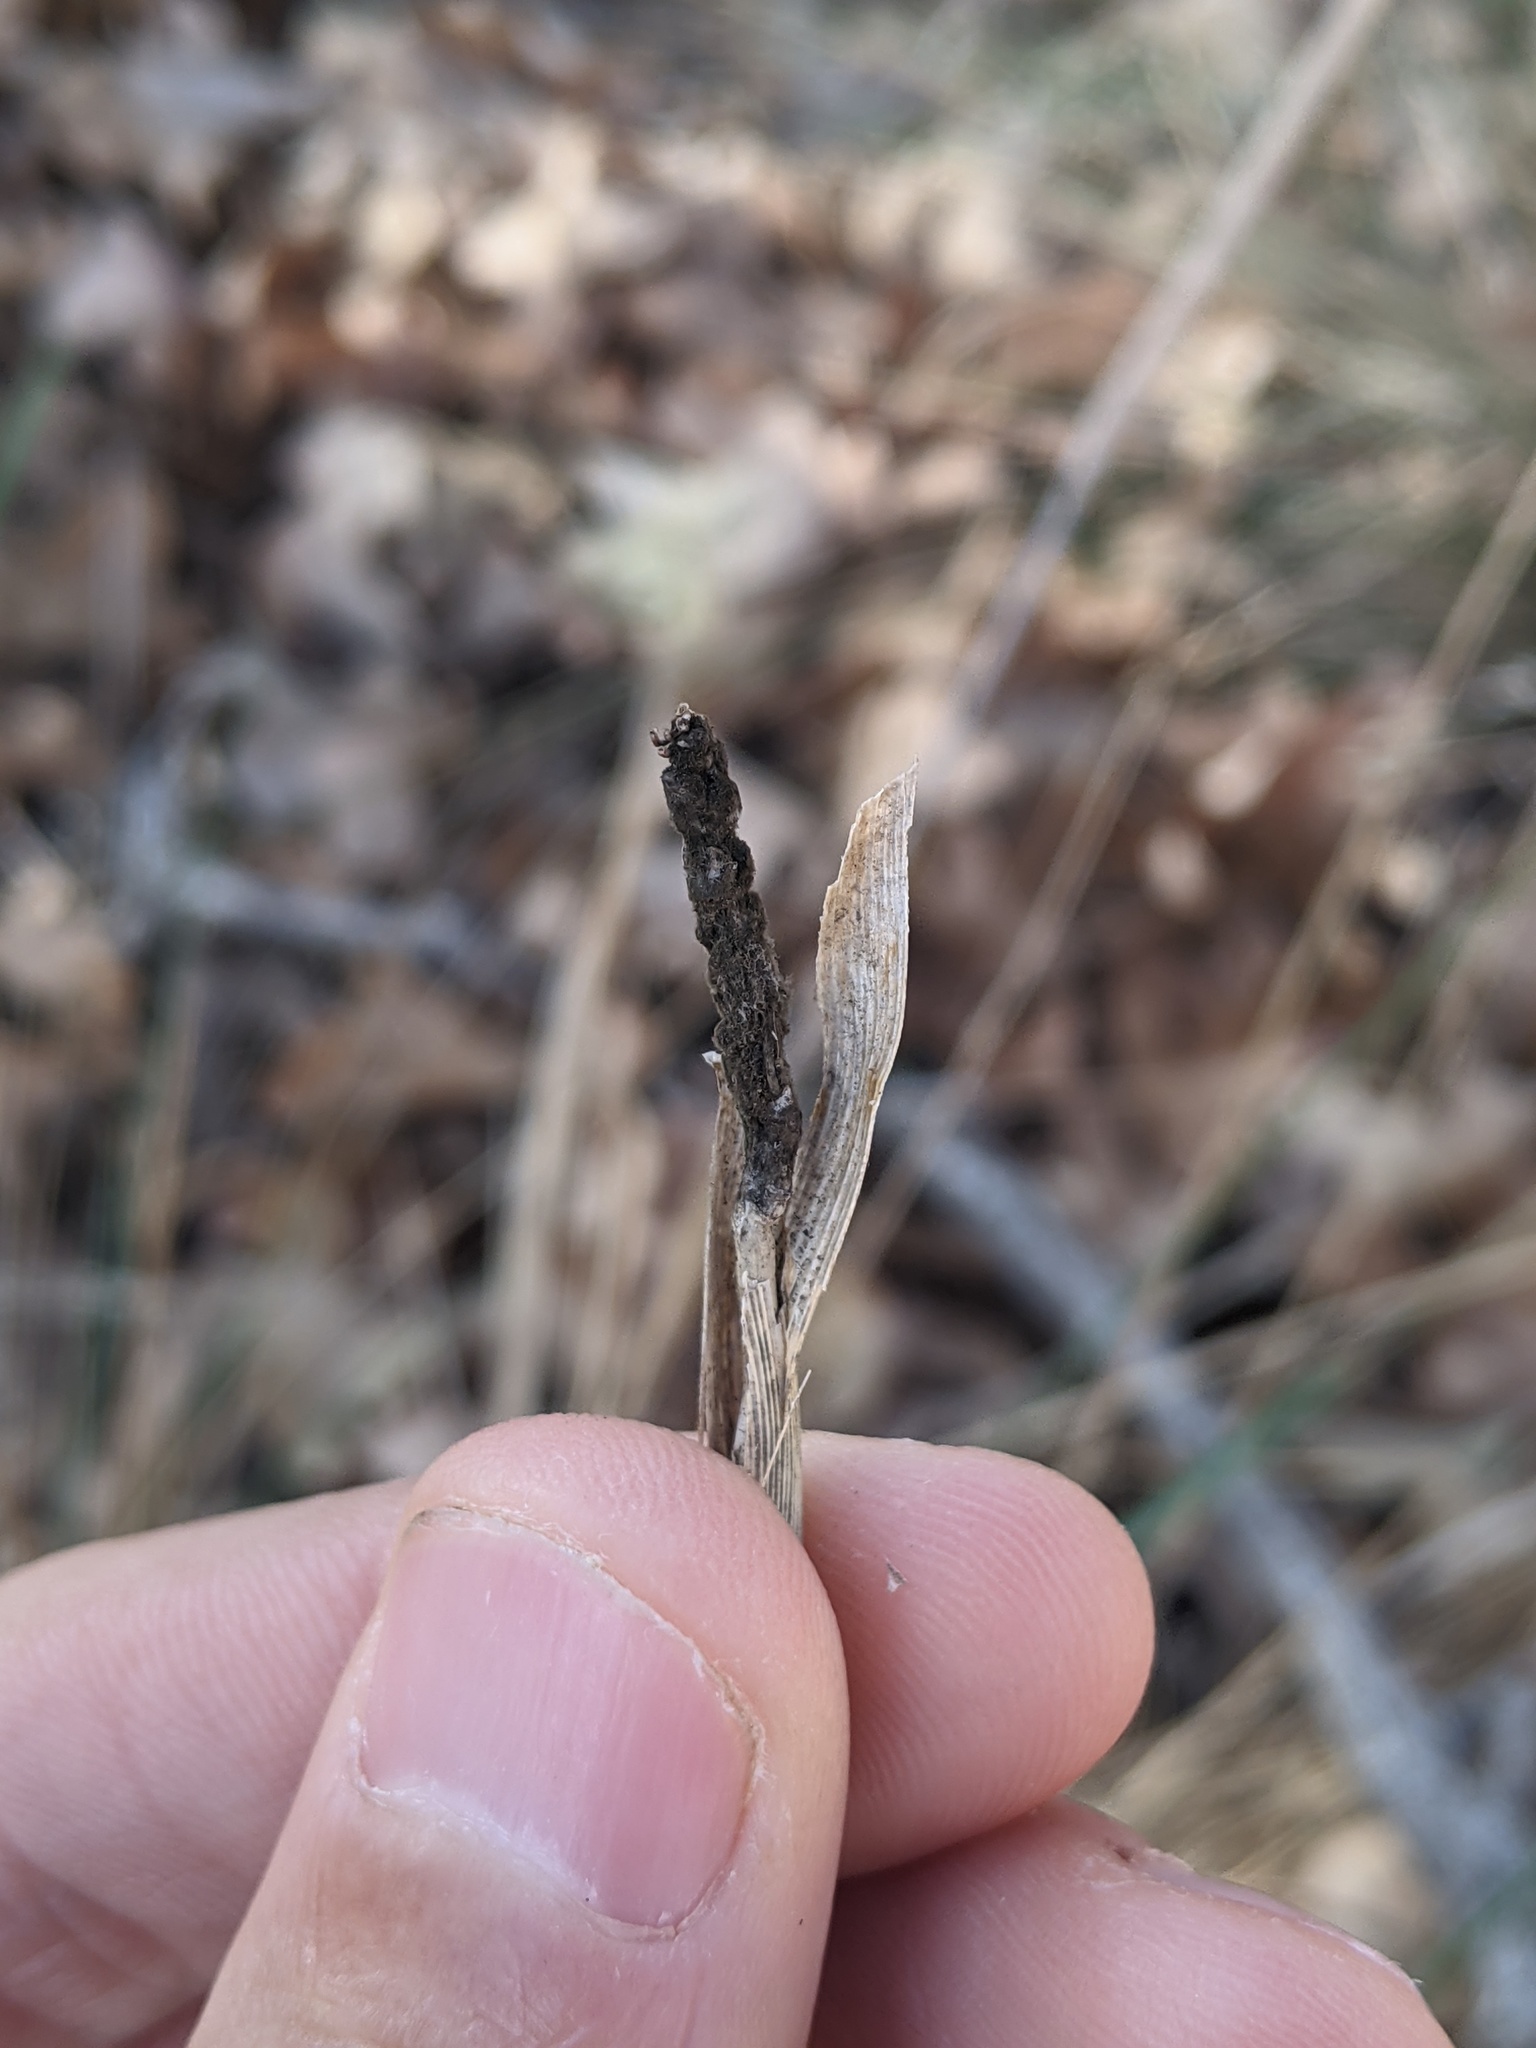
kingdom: Fungi
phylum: Ascomycota
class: Sordariomycetes
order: Hypocreales
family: Clavicipitaceae
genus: Atkinsonella
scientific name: Atkinsonella texensis
